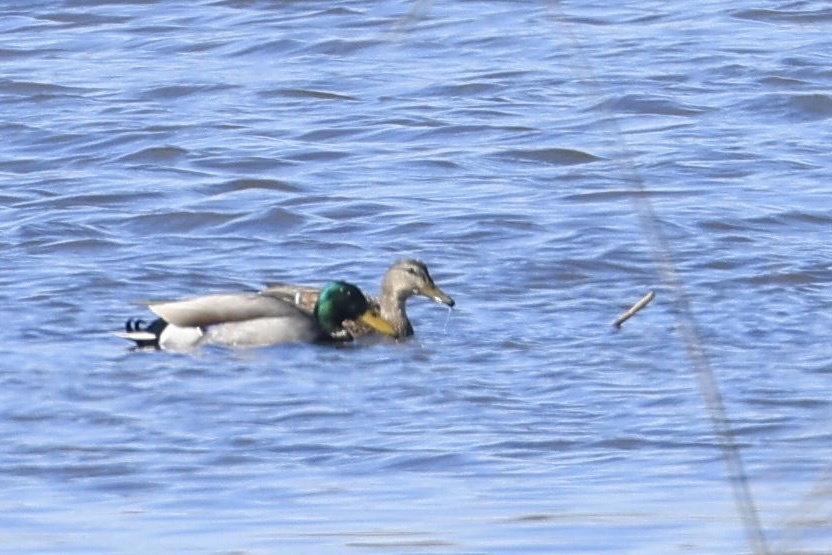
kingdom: Animalia
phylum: Chordata
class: Aves
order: Anseriformes
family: Anatidae
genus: Anas
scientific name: Anas platyrhynchos
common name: Mallard
